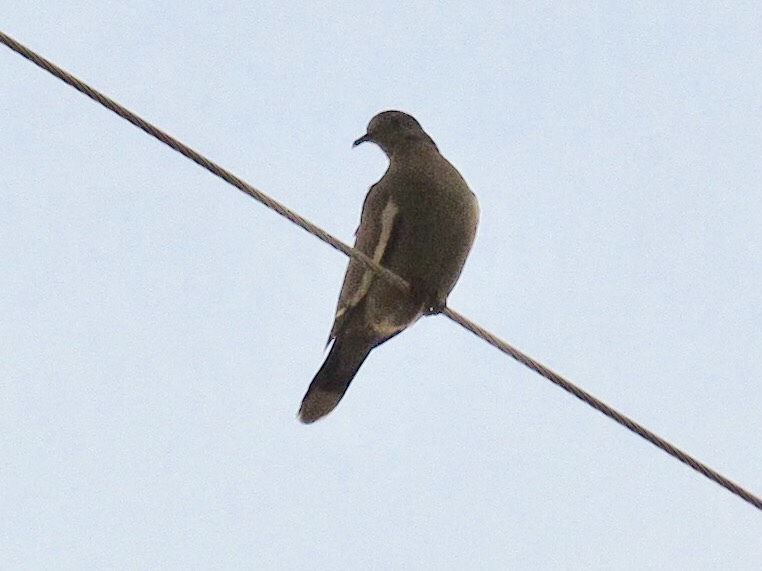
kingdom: Animalia
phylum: Chordata
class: Aves
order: Columbiformes
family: Columbidae
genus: Zenaida
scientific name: Zenaida asiatica
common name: White-winged dove
